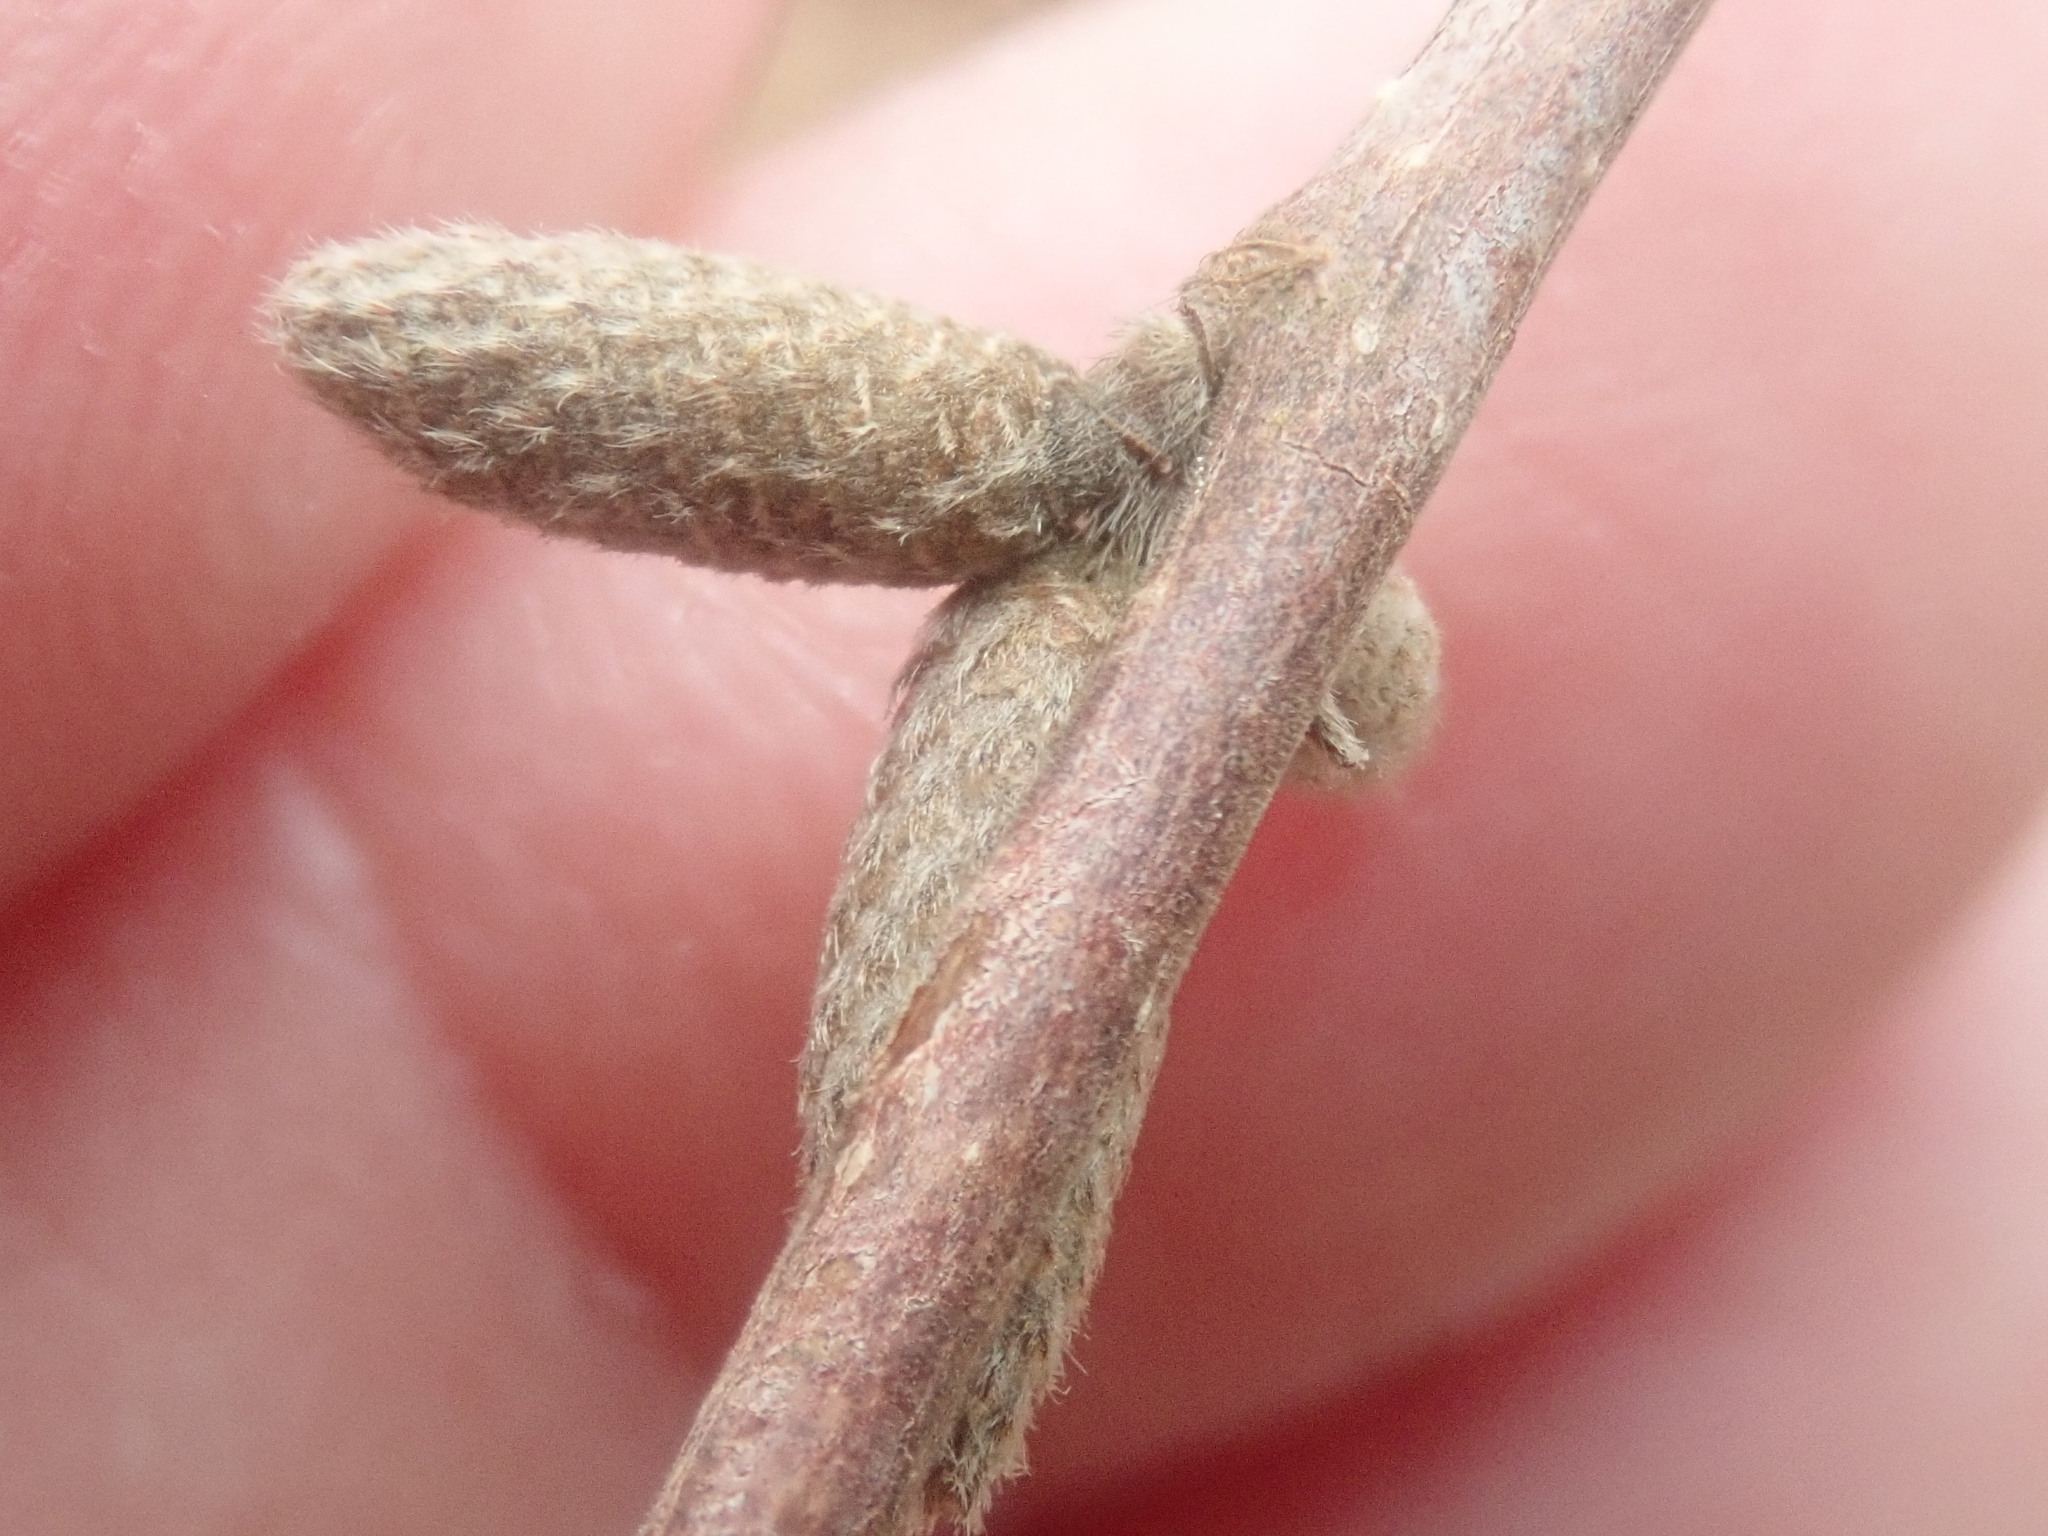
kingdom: Plantae
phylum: Tracheophyta
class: Magnoliopsida
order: Fagales
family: Betulaceae
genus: Corylus
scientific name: Corylus cornuta
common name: Beaked hazel
